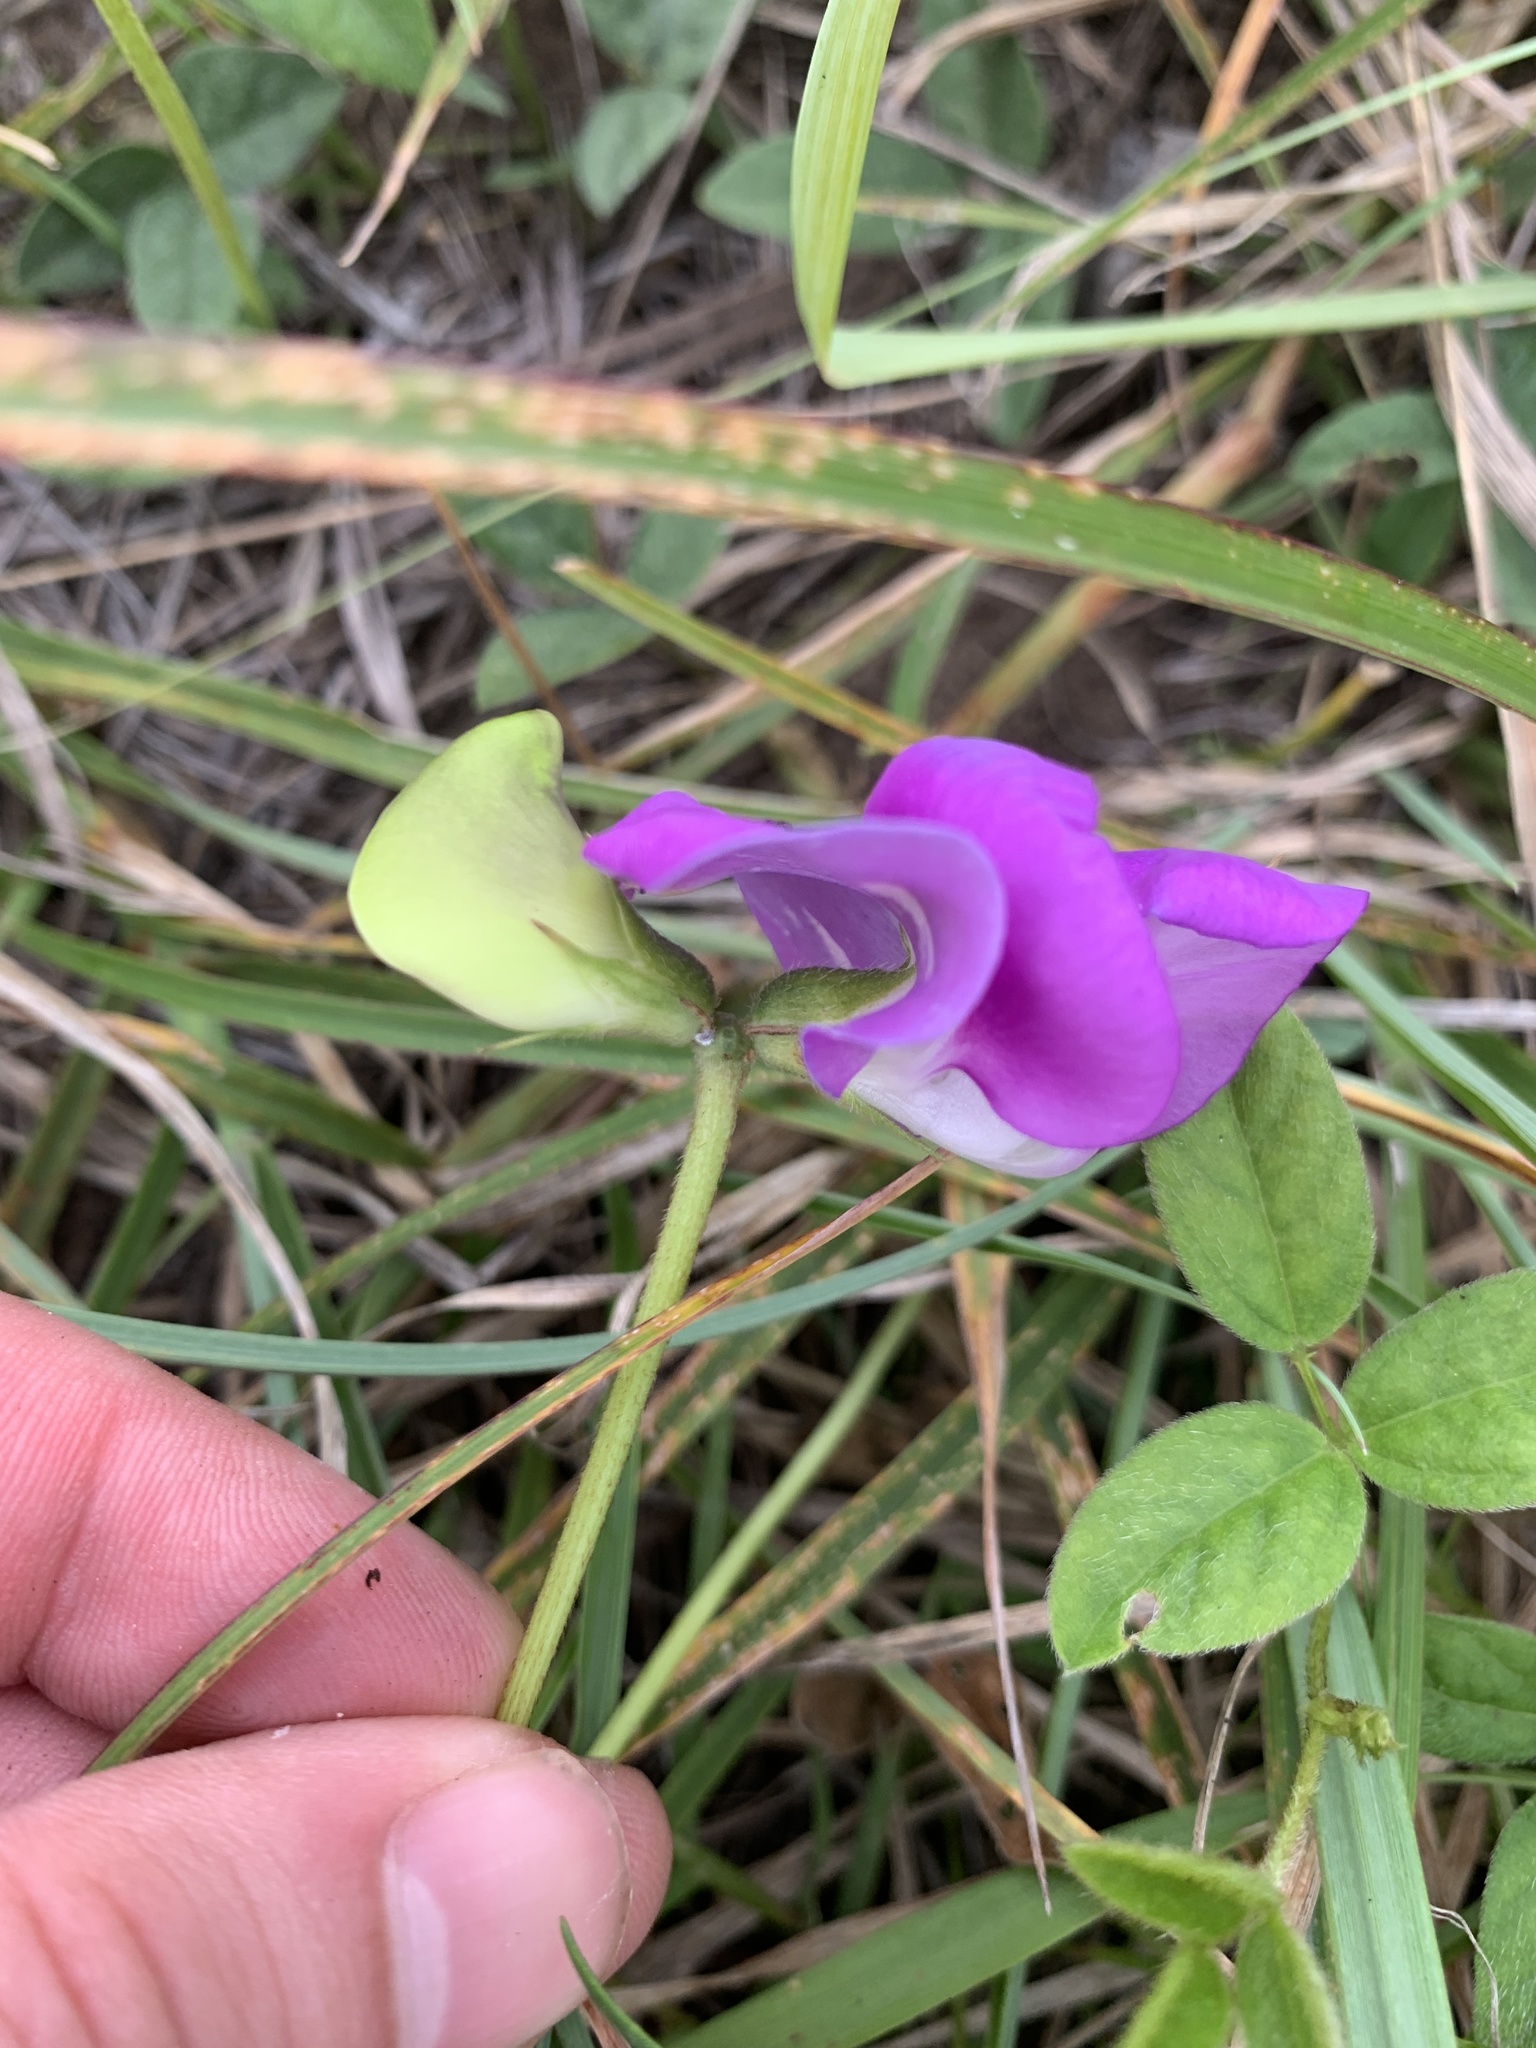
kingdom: Plantae
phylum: Tracheophyta
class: Magnoliopsida
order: Fabales
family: Fabaceae
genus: Vigna
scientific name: Vigna vexillata
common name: Zombi pea
